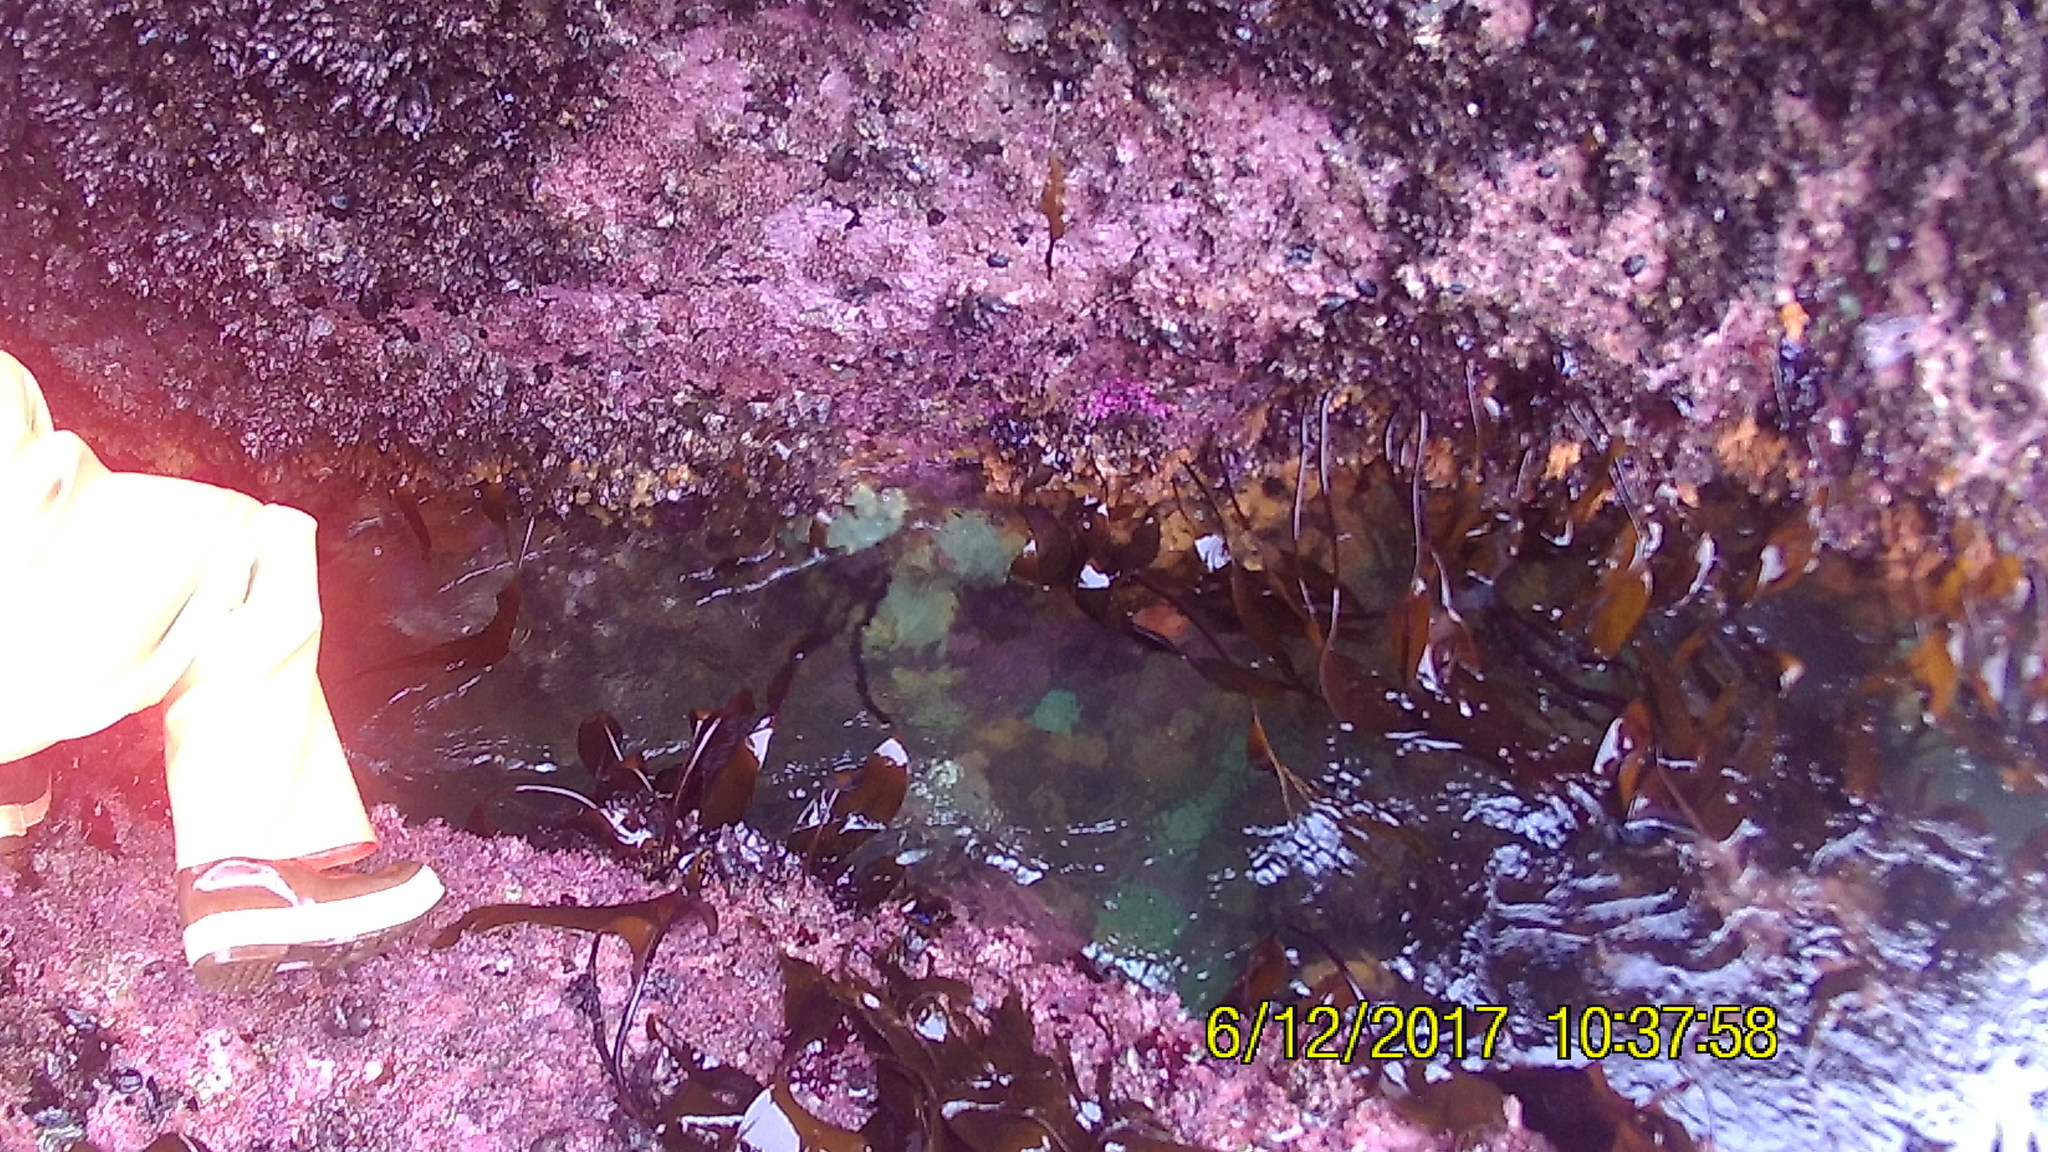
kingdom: Chromista
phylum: Ochrophyta
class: Phaeophyceae
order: Laminariales
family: Laminariaceae
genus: Laminaria
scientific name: Laminaria setchellii
